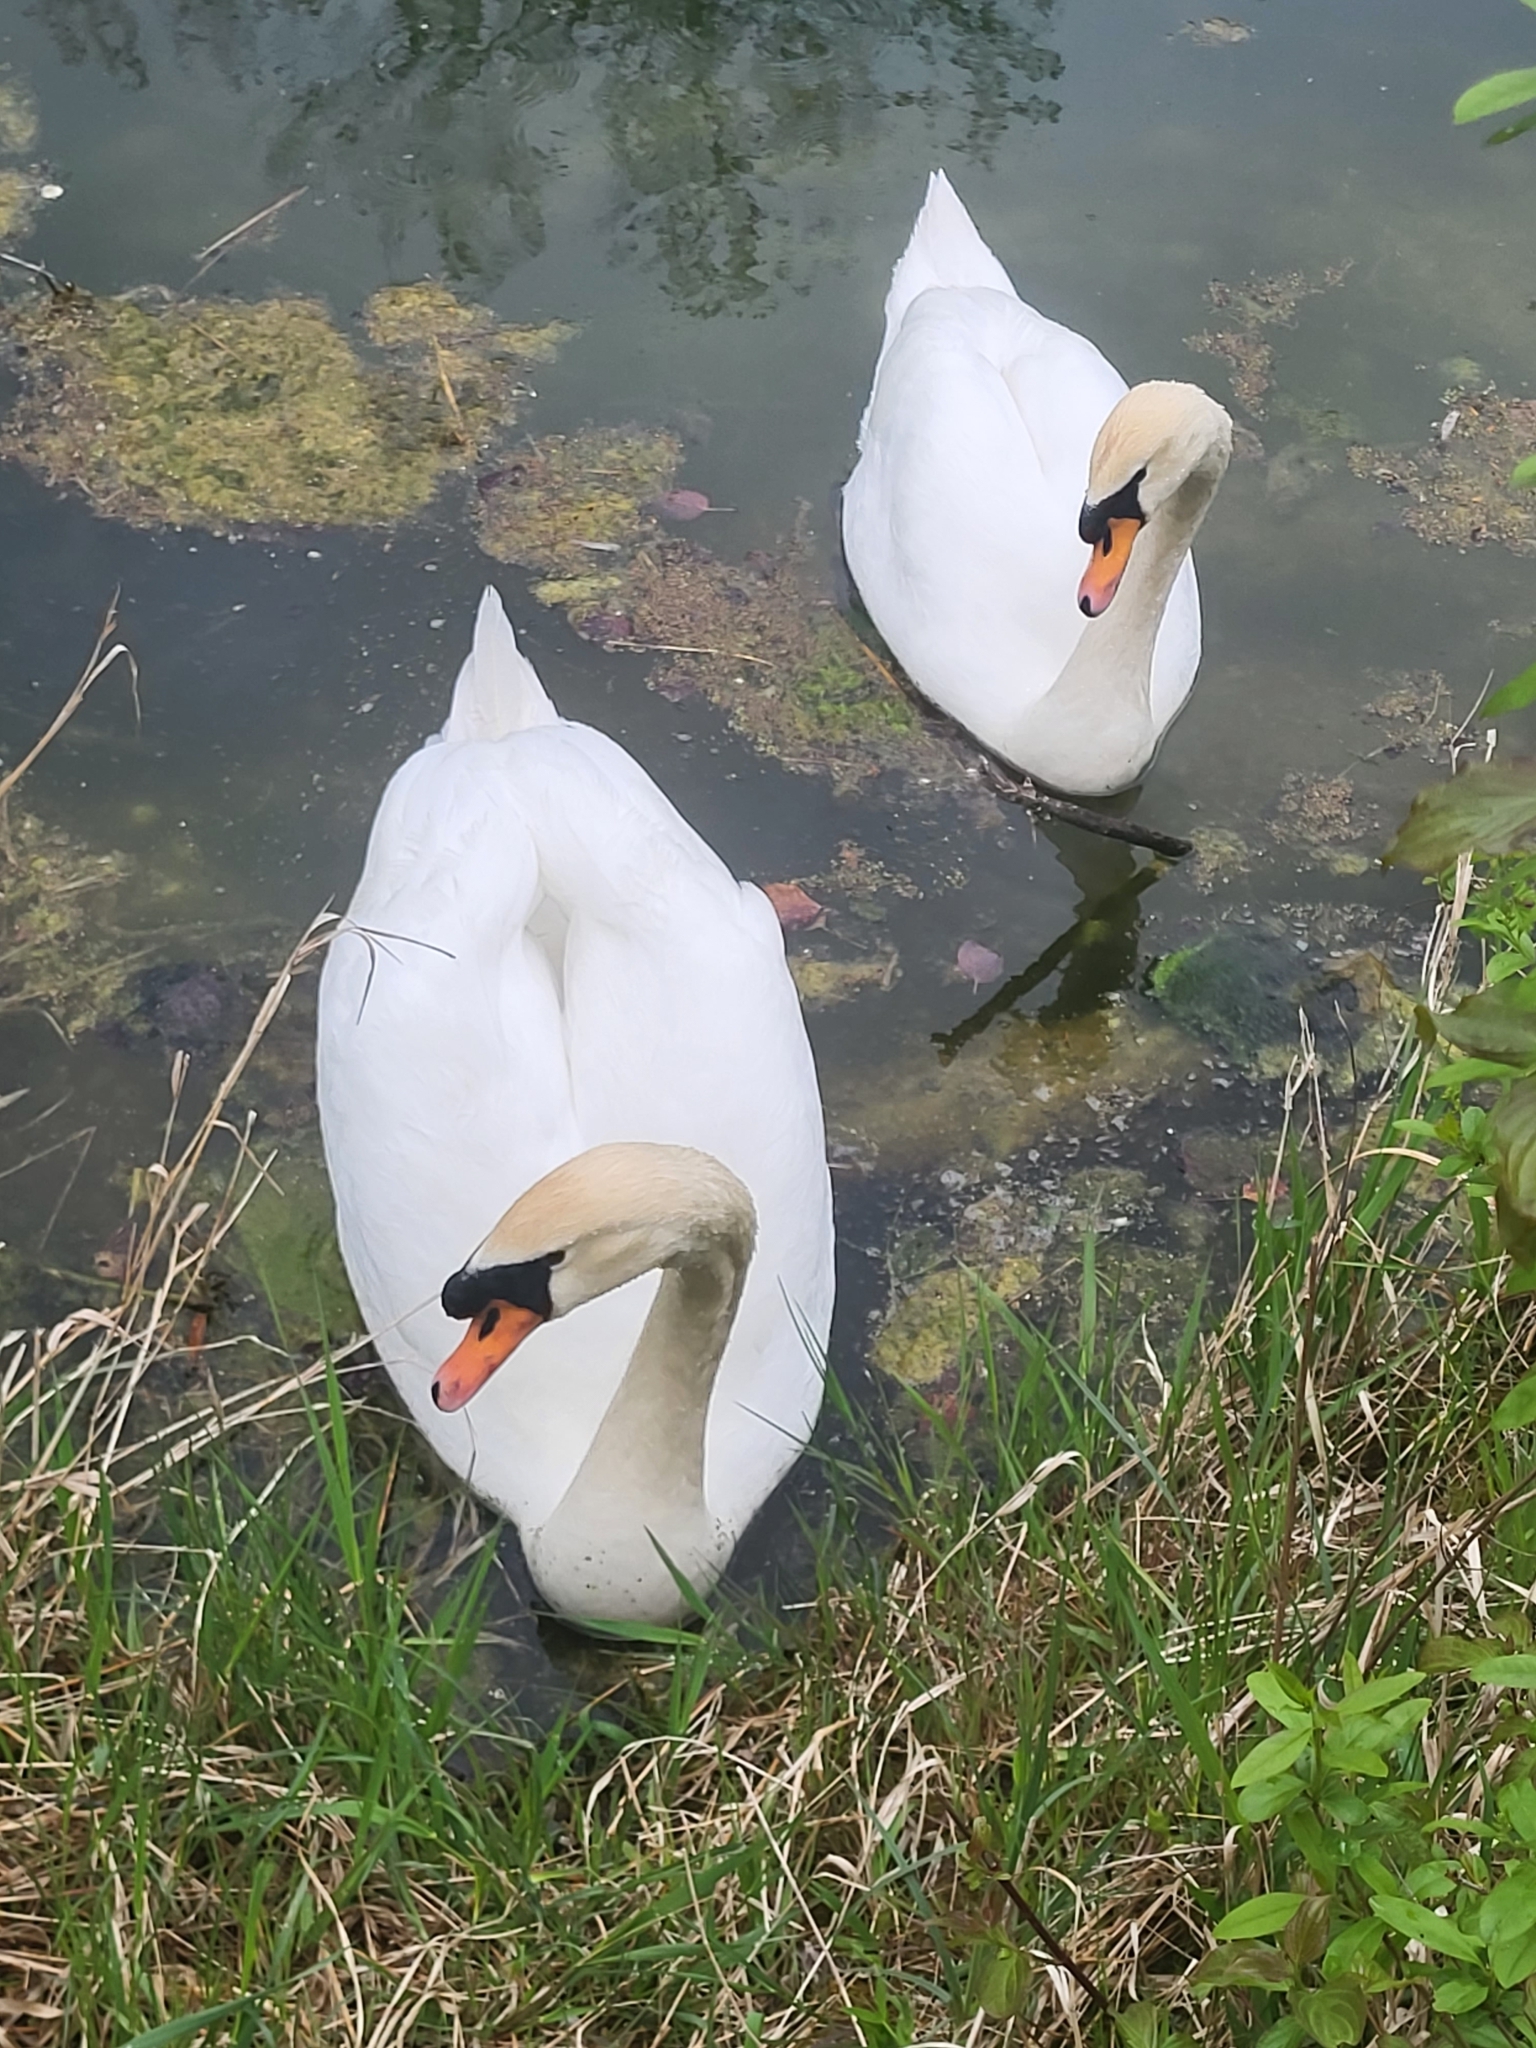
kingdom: Animalia
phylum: Chordata
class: Aves
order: Anseriformes
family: Anatidae
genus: Cygnus
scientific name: Cygnus olor
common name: Mute swan
